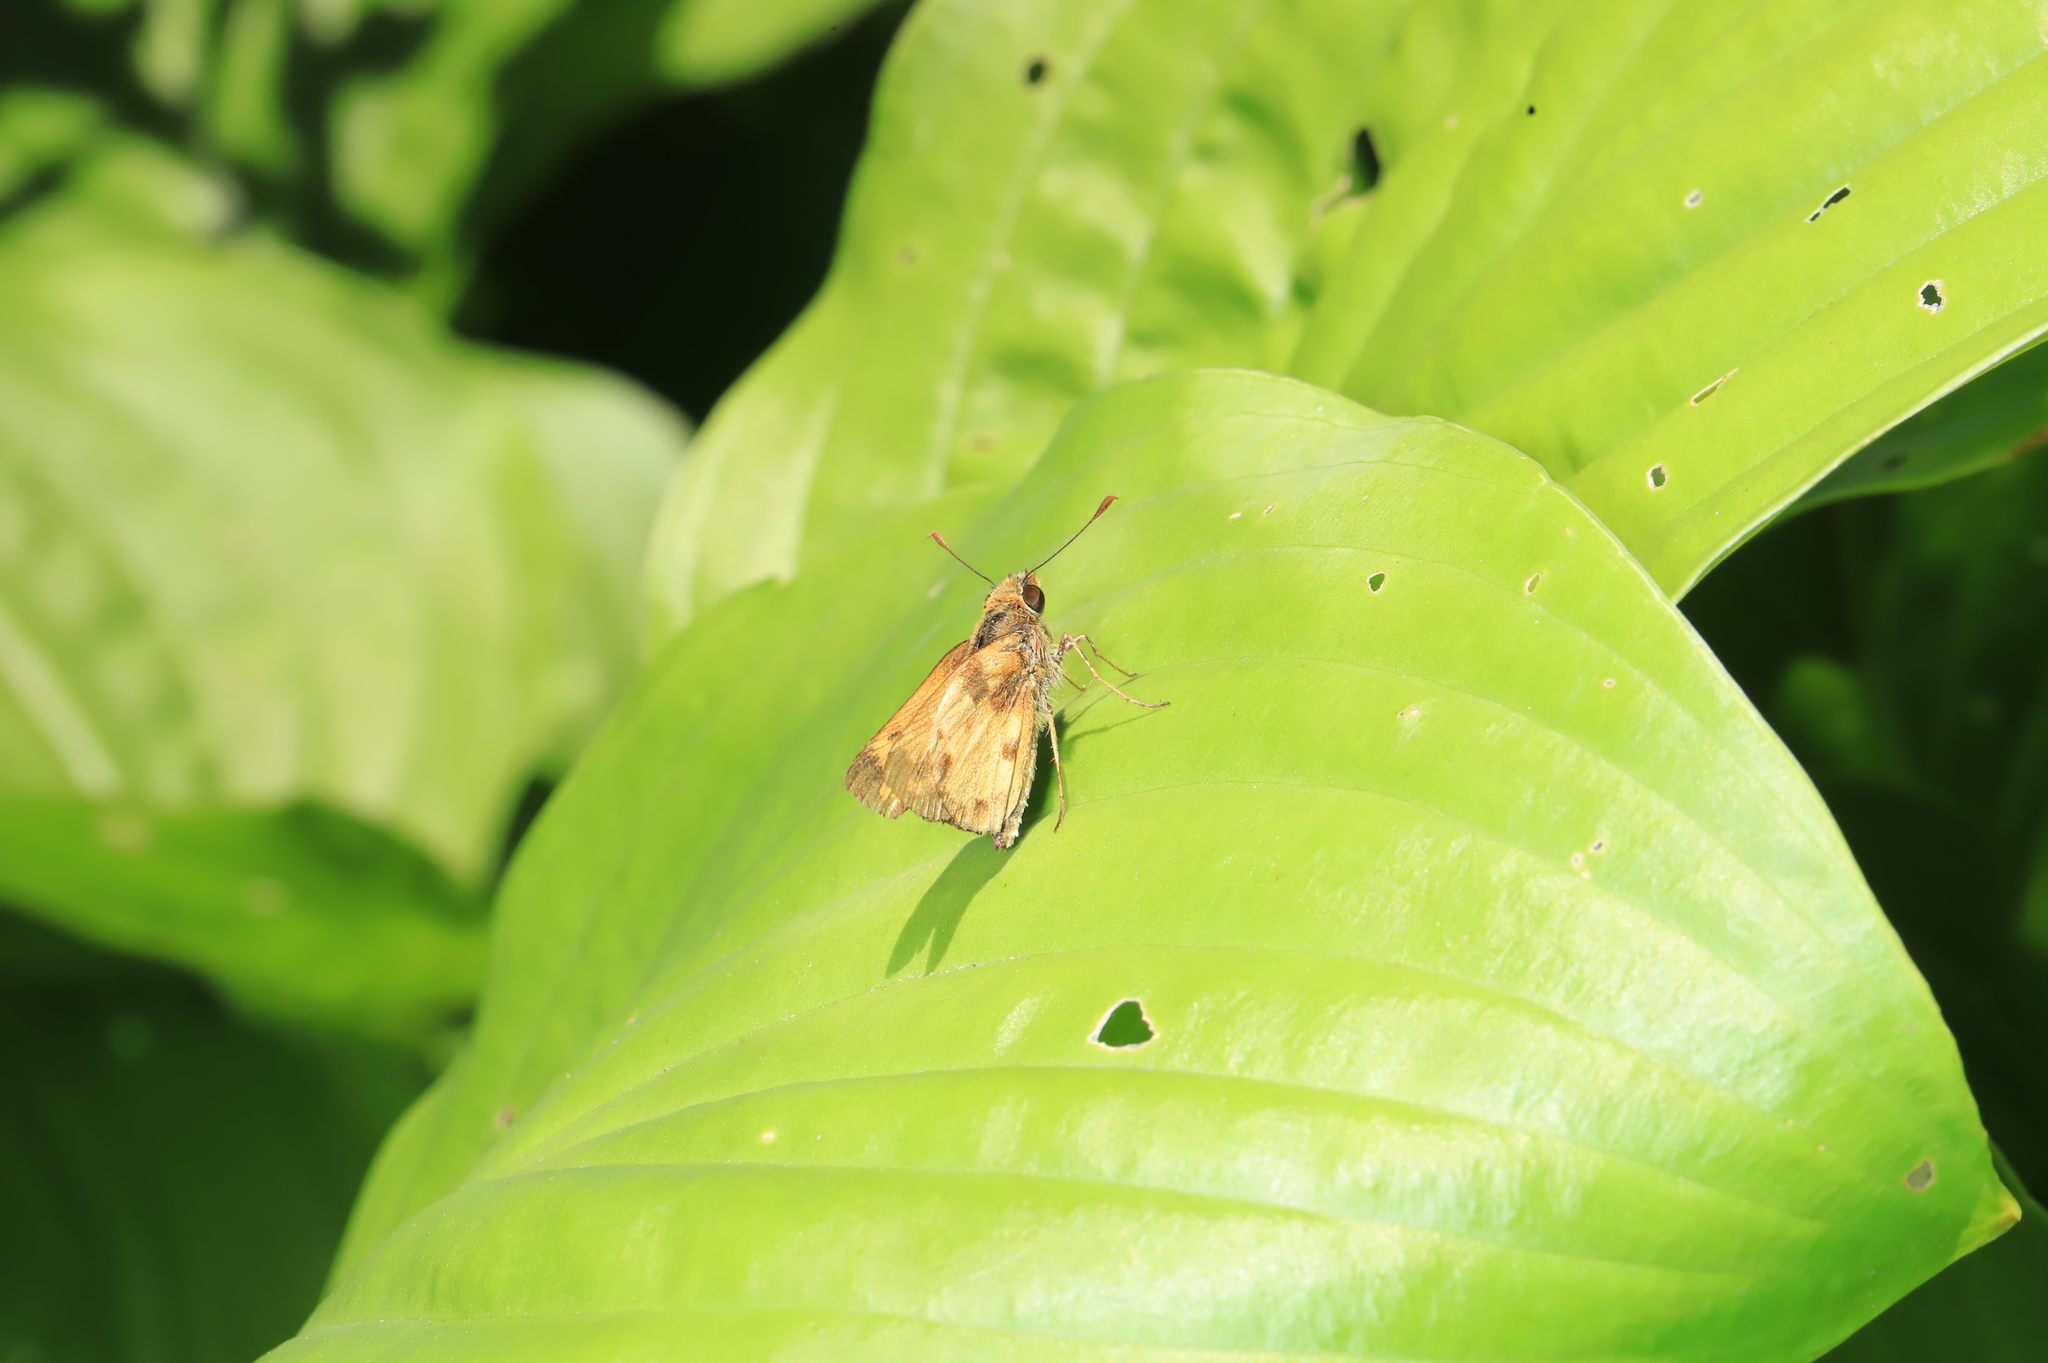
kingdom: Animalia
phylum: Arthropoda
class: Insecta
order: Lepidoptera
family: Hesperiidae
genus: Lon
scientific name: Lon zabulon
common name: Zabulon skipper
